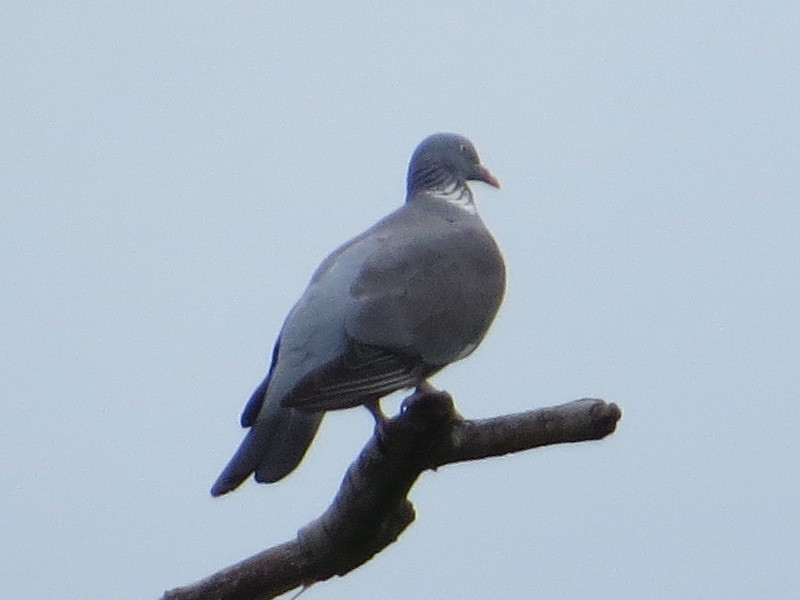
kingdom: Animalia
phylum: Chordata
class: Aves
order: Columbiformes
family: Columbidae
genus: Columba
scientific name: Columba palumbus
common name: Common wood pigeon
